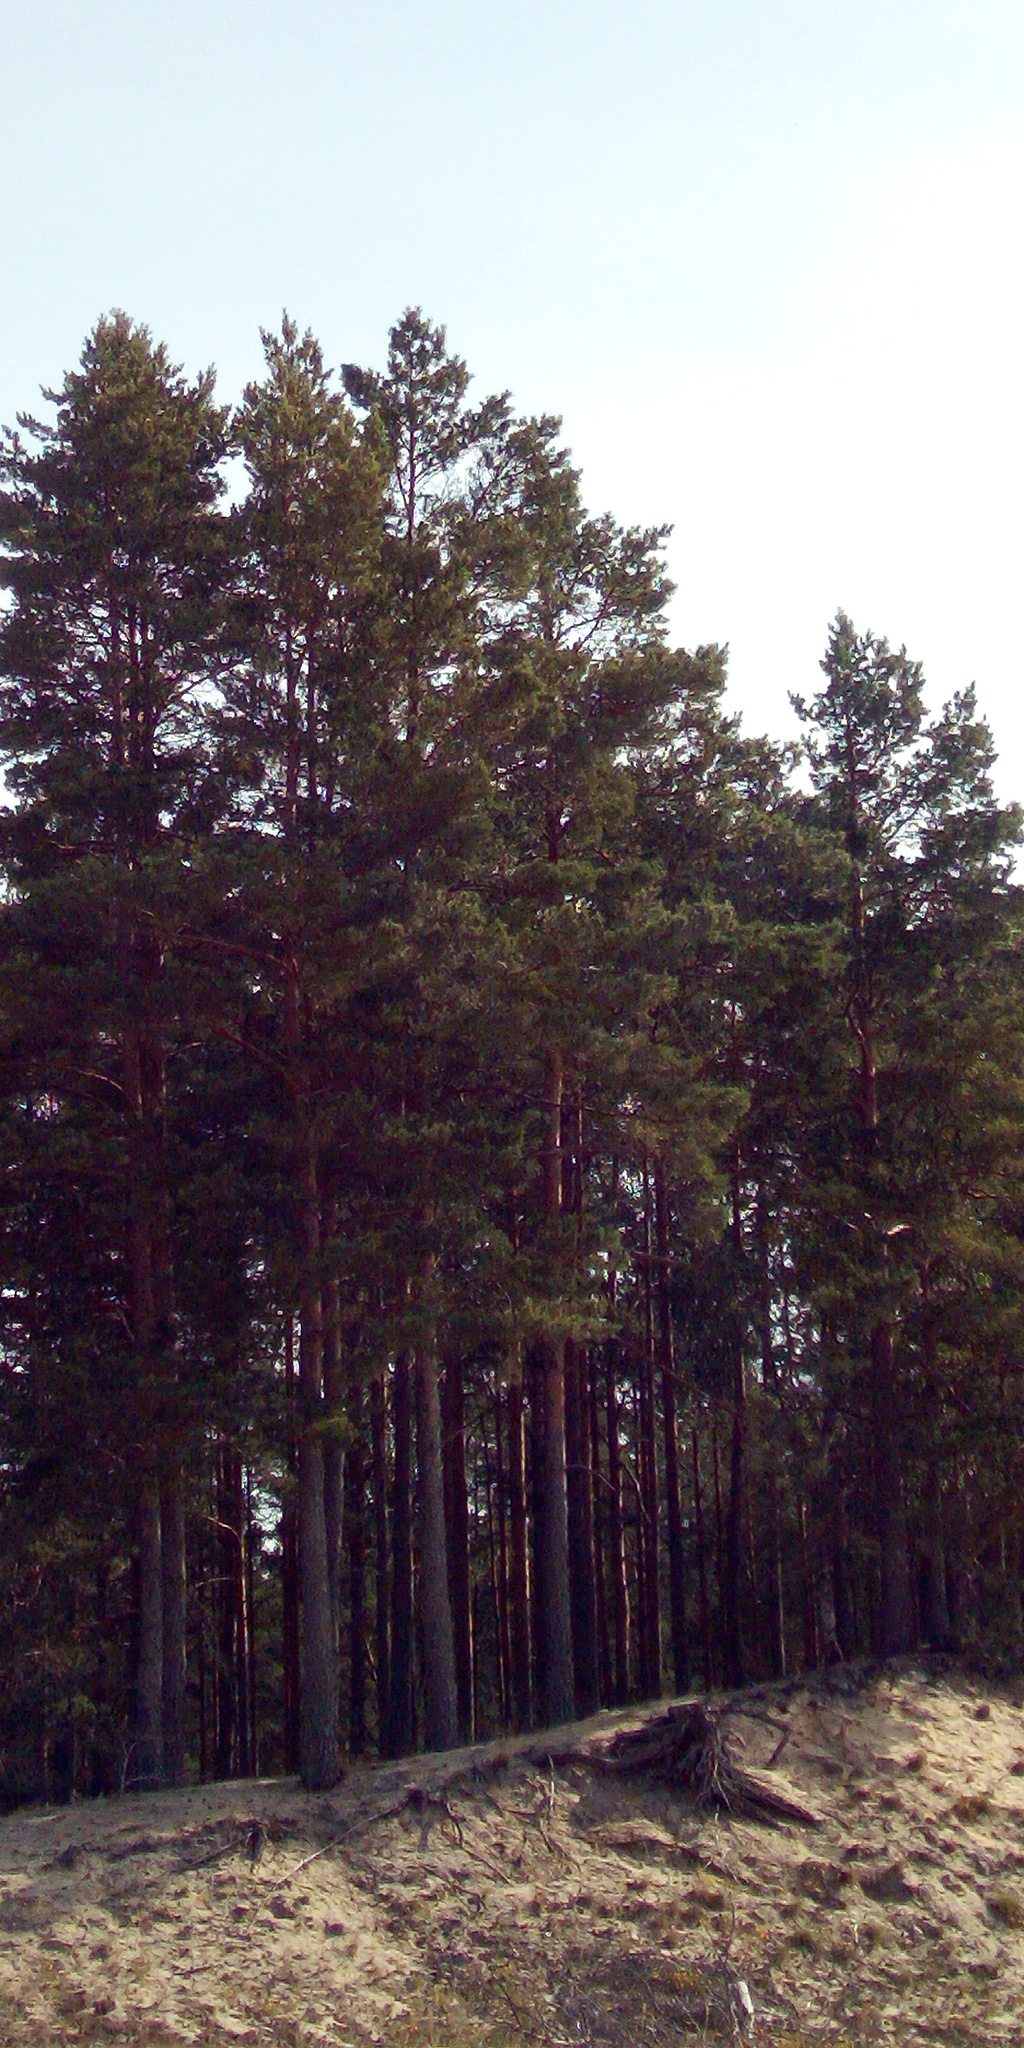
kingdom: Plantae
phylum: Tracheophyta
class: Pinopsida
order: Pinales
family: Pinaceae
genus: Pinus
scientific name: Pinus sylvestris
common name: Scots pine
